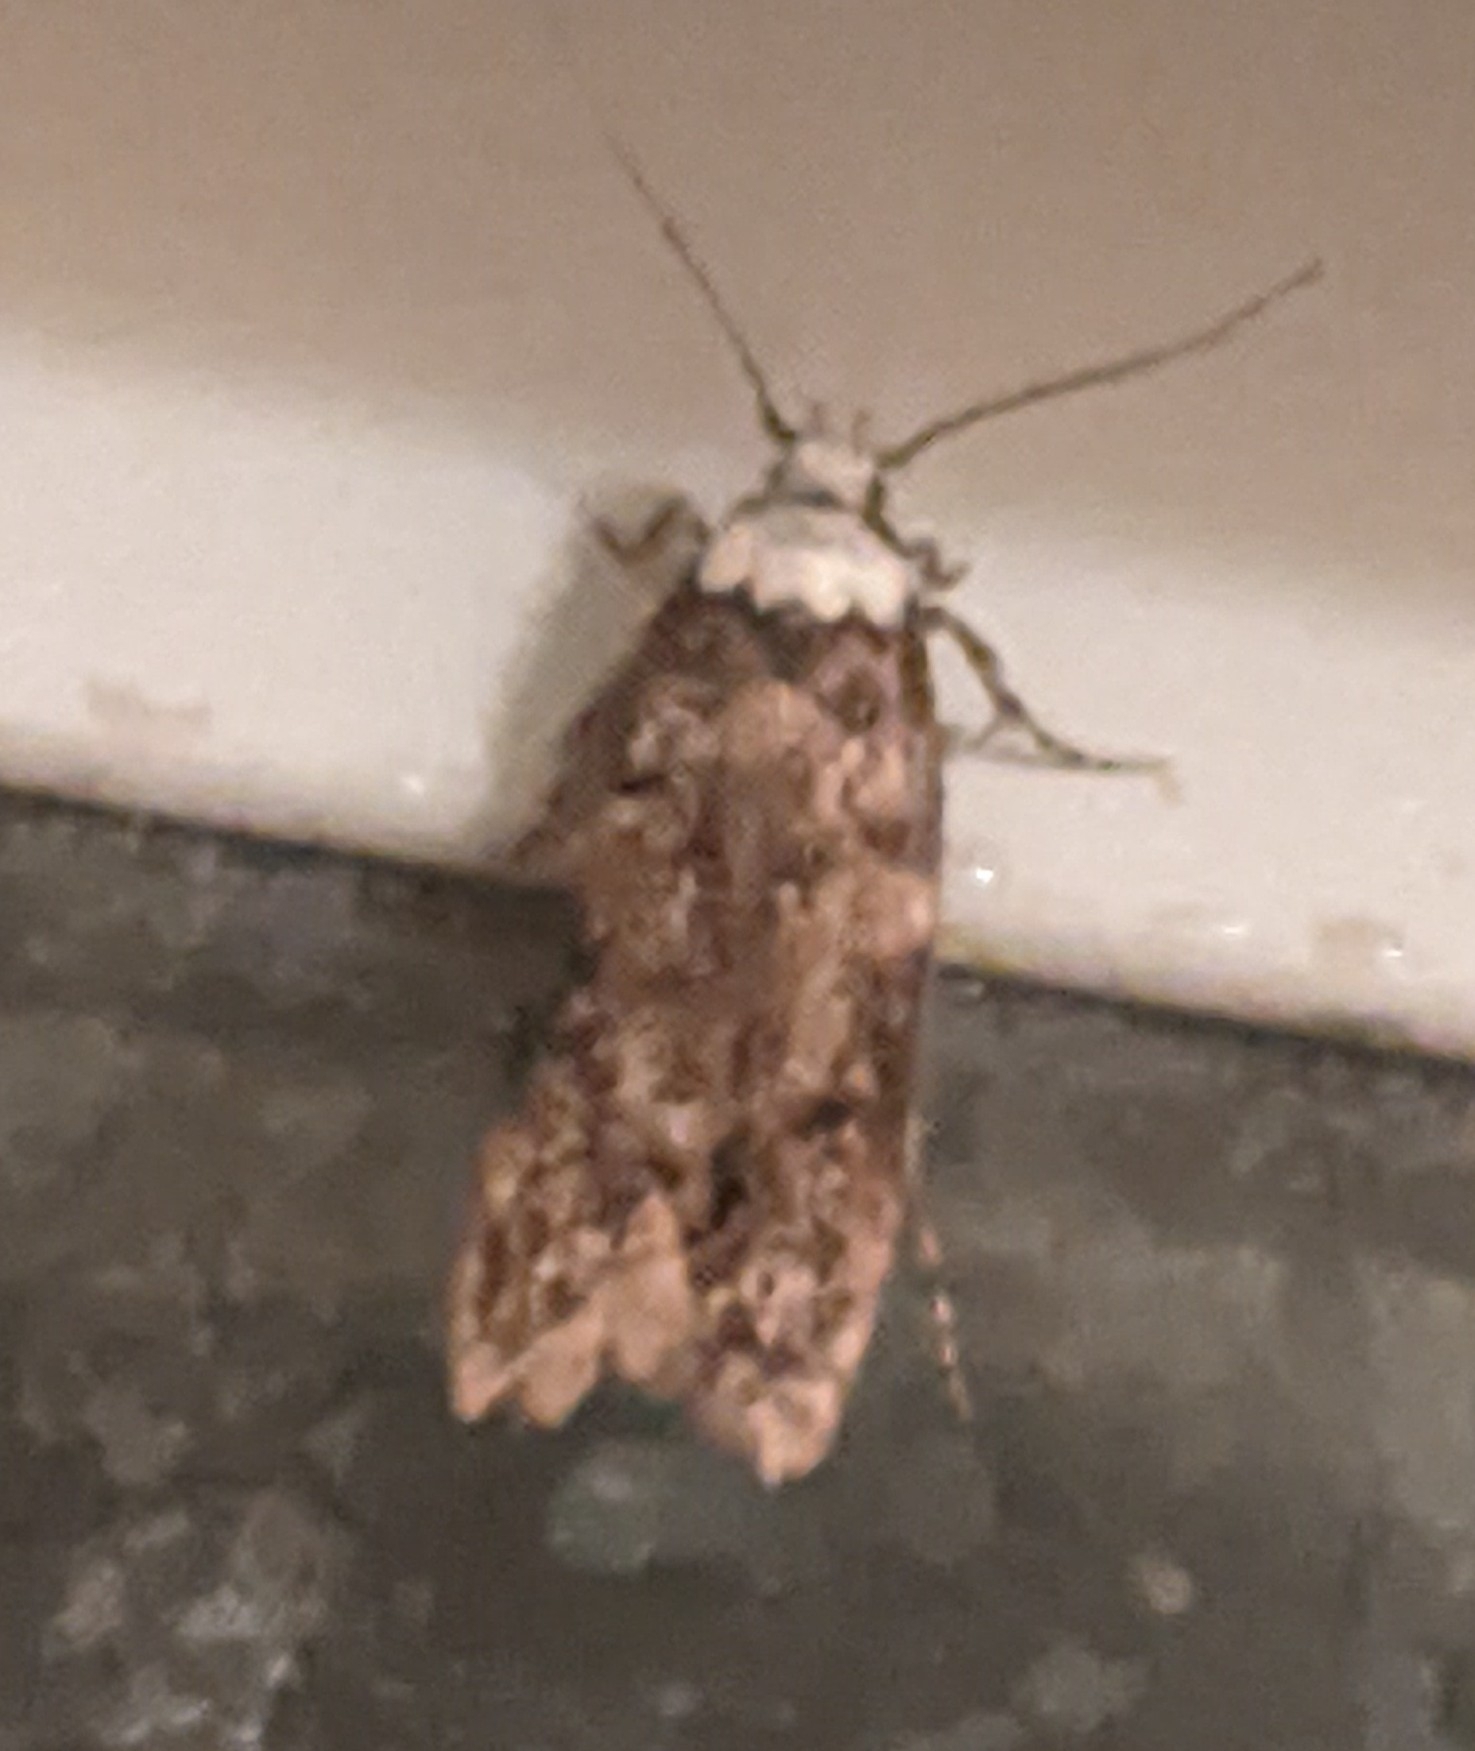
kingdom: Animalia
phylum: Arthropoda
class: Insecta
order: Lepidoptera
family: Oecophoridae
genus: Endrosis
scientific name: Endrosis sarcitrella
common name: White-shouldered house moth
